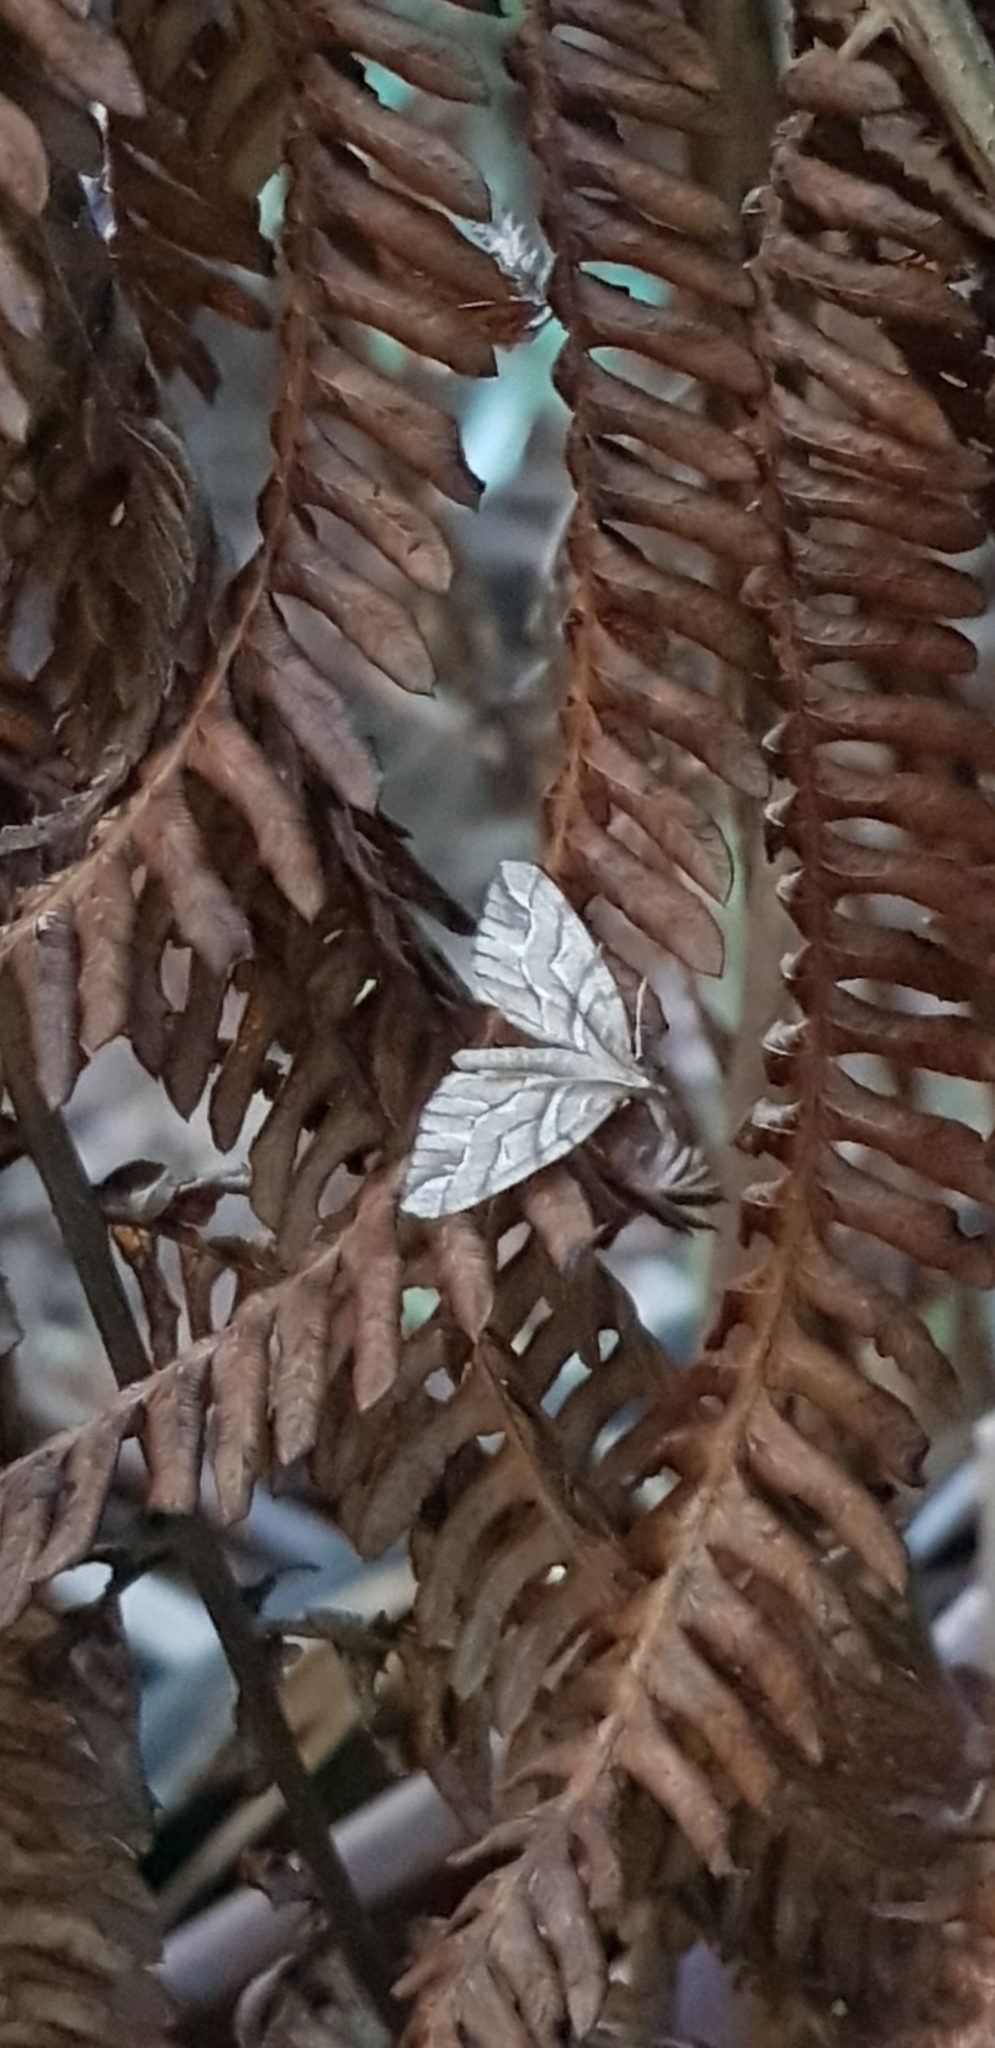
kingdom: Animalia
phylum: Arthropoda
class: Insecta
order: Lepidoptera
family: Geometridae
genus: Chalastra
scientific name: Chalastra aristarcha
